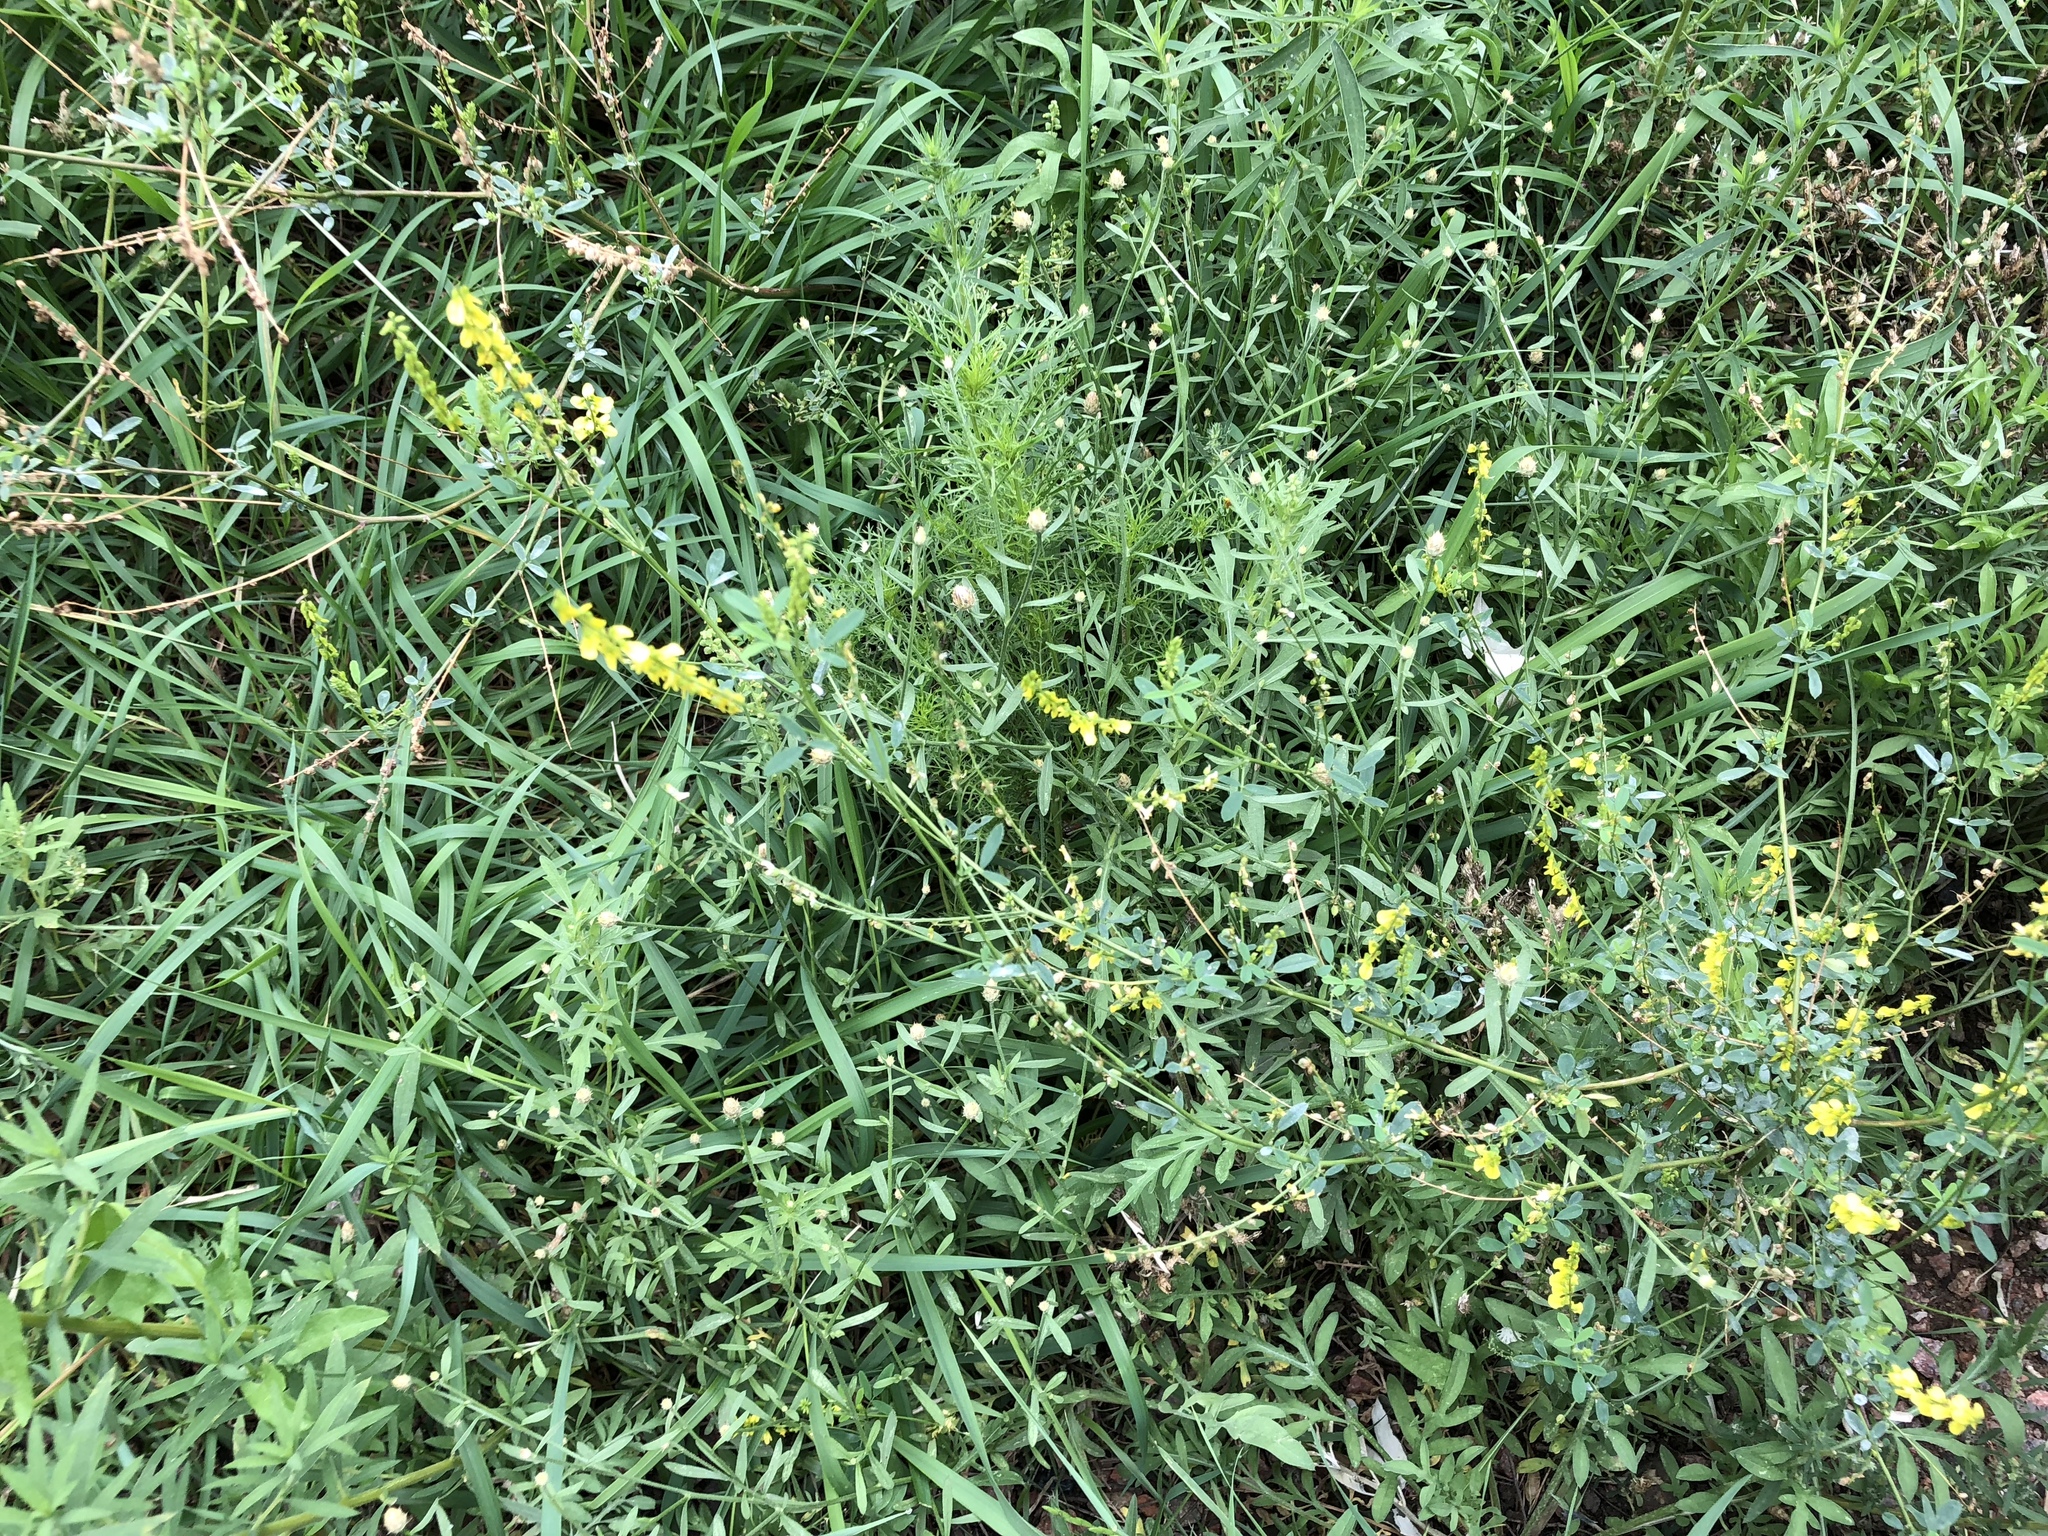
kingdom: Plantae
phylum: Tracheophyta
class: Magnoliopsida
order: Fabales
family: Fabaceae
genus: Melilotus
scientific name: Melilotus officinalis
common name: Sweetclover
